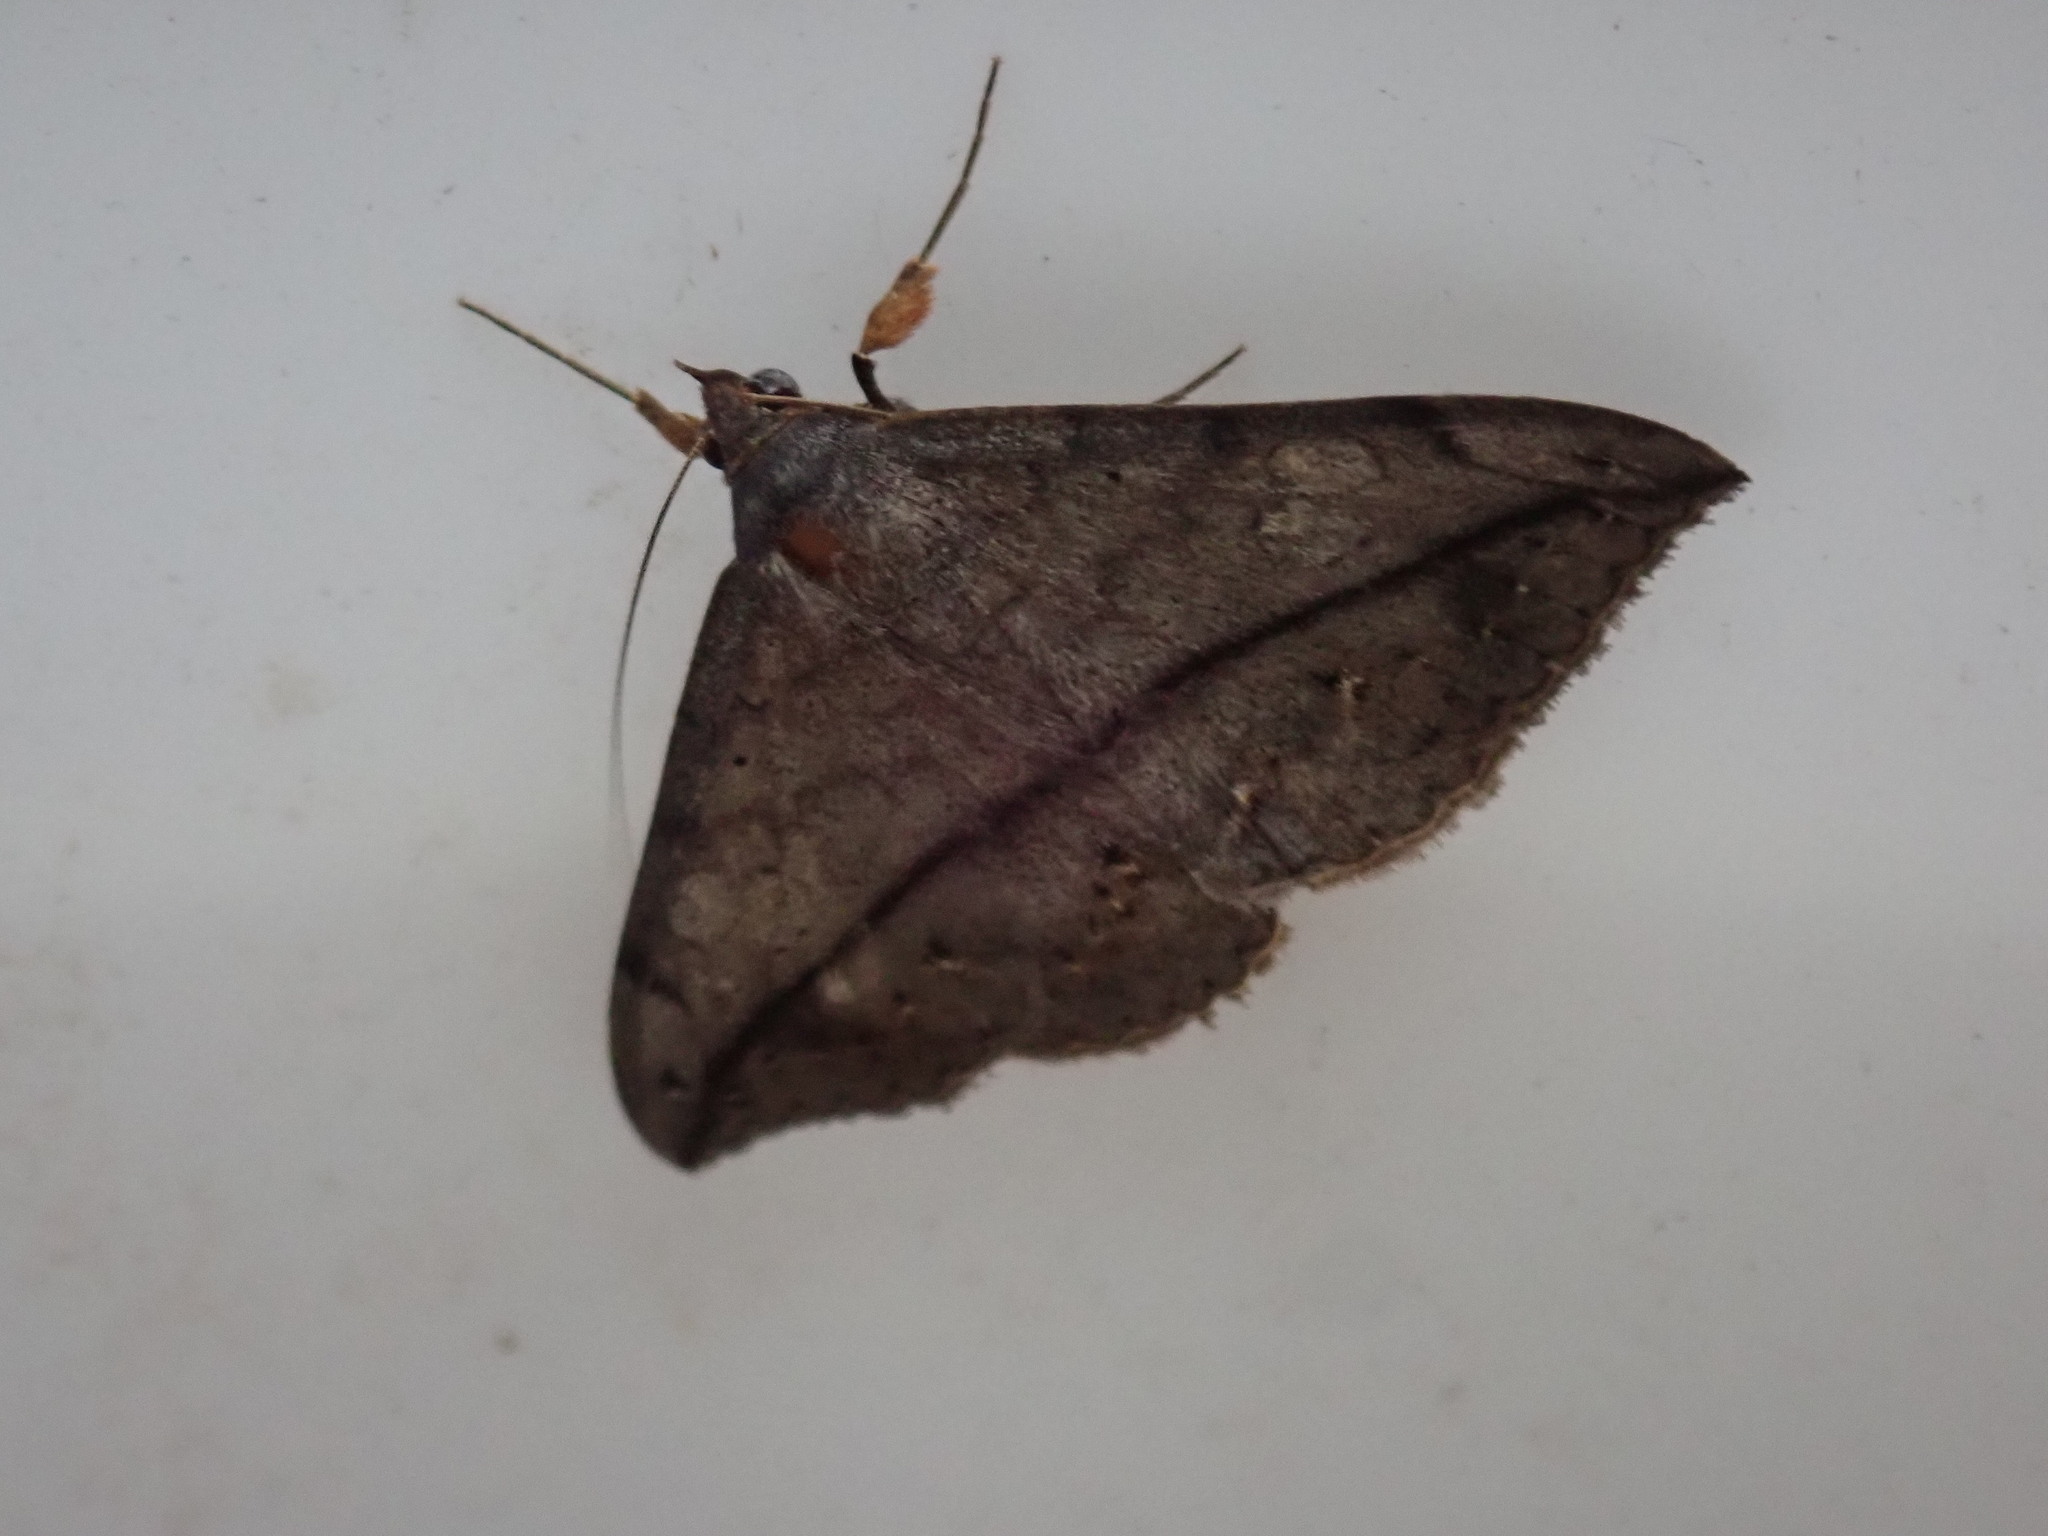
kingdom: Animalia
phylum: Arthropoda
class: Insecta
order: Lepidoptera
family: Erebidae
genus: Anticarsia
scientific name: Anticarsia gemmatalis
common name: Cutworm moth
